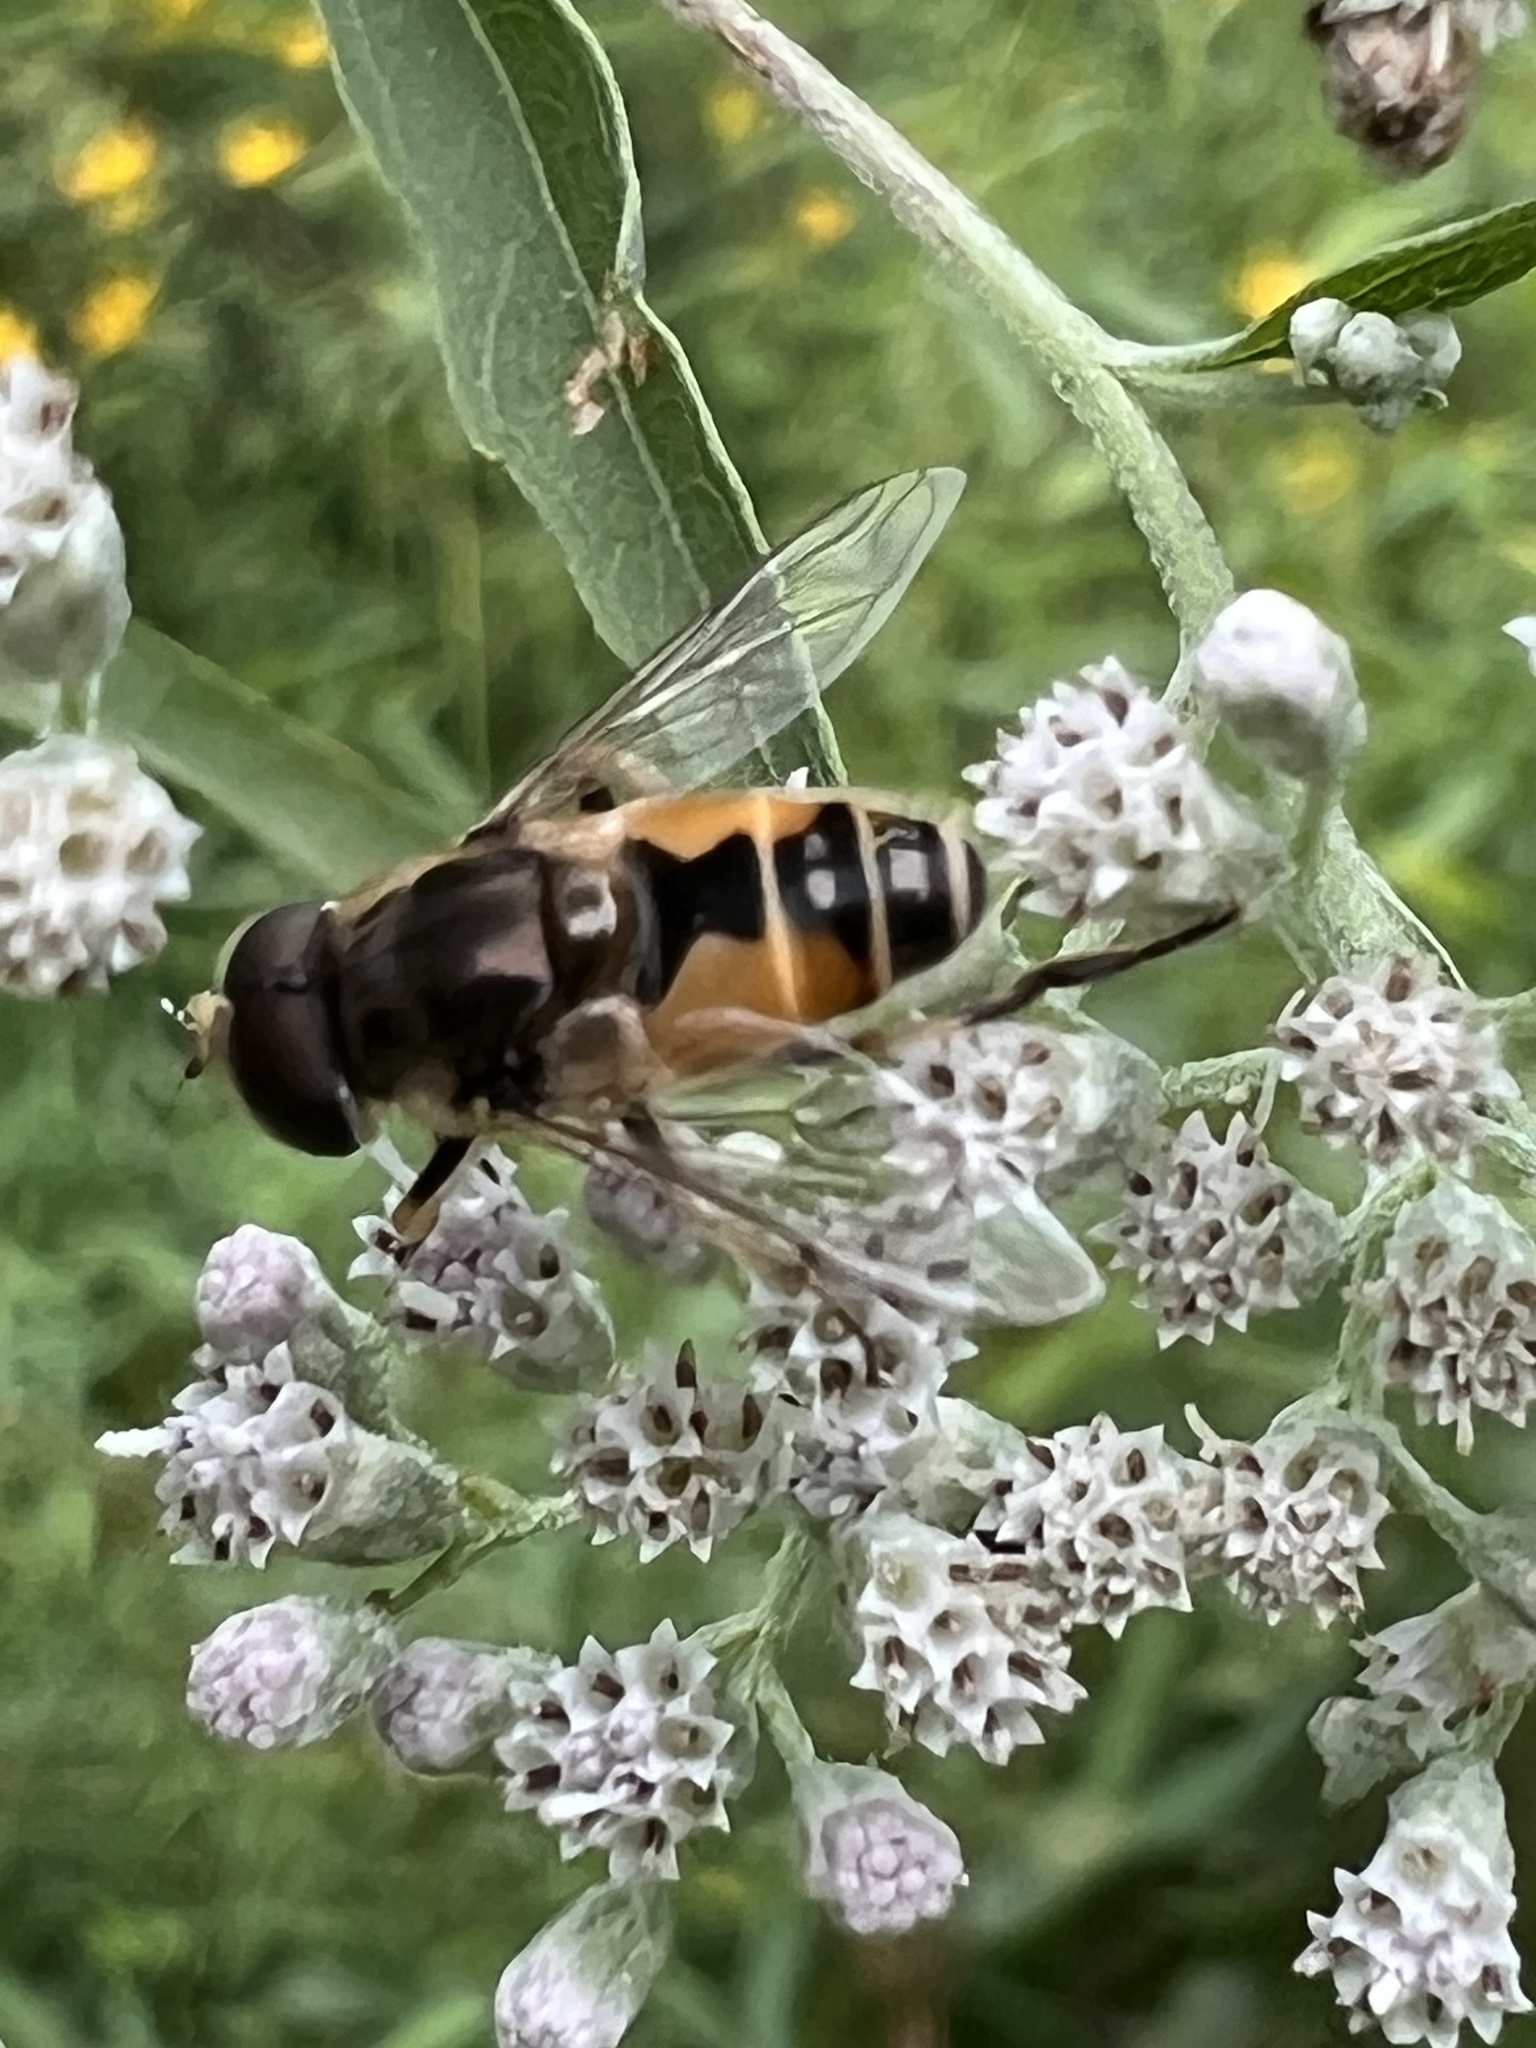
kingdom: Animalia
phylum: Arthropoda
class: Insecta
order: Diptera
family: Syrphidae
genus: Eristalis
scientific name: Eristalis arbustorum
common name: Hover fly
